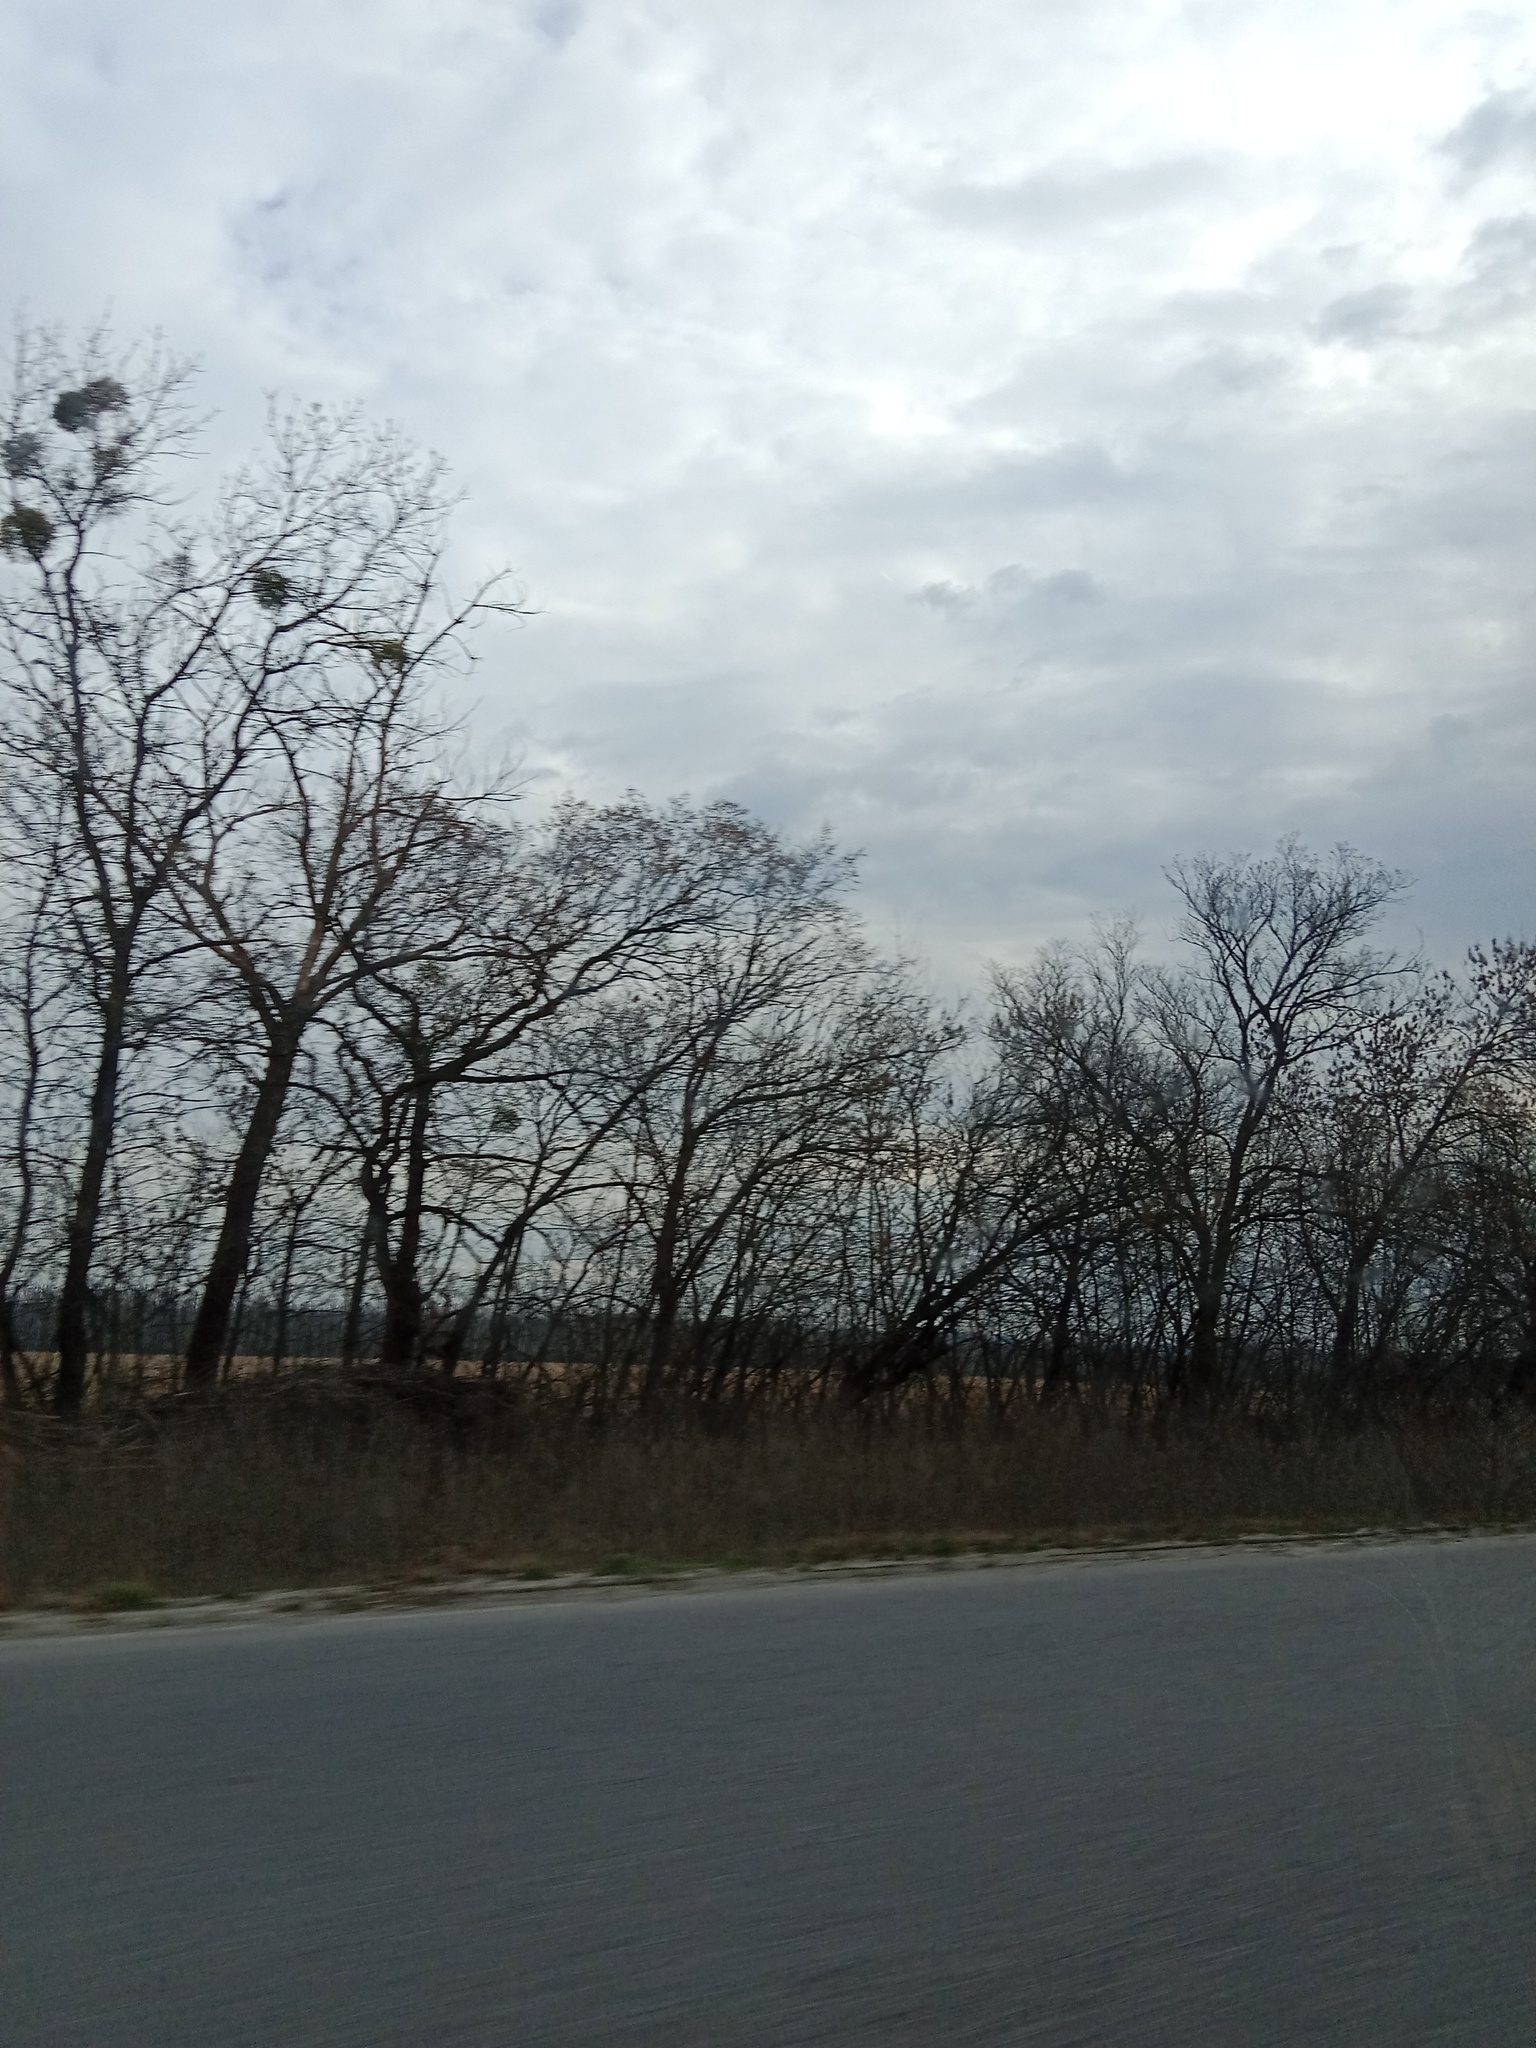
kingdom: Plantae
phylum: Tracheophyta
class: Magnoliopsida
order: Santalales
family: Viscaceae
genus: Viscum
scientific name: Viscum album
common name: Mistletoe
